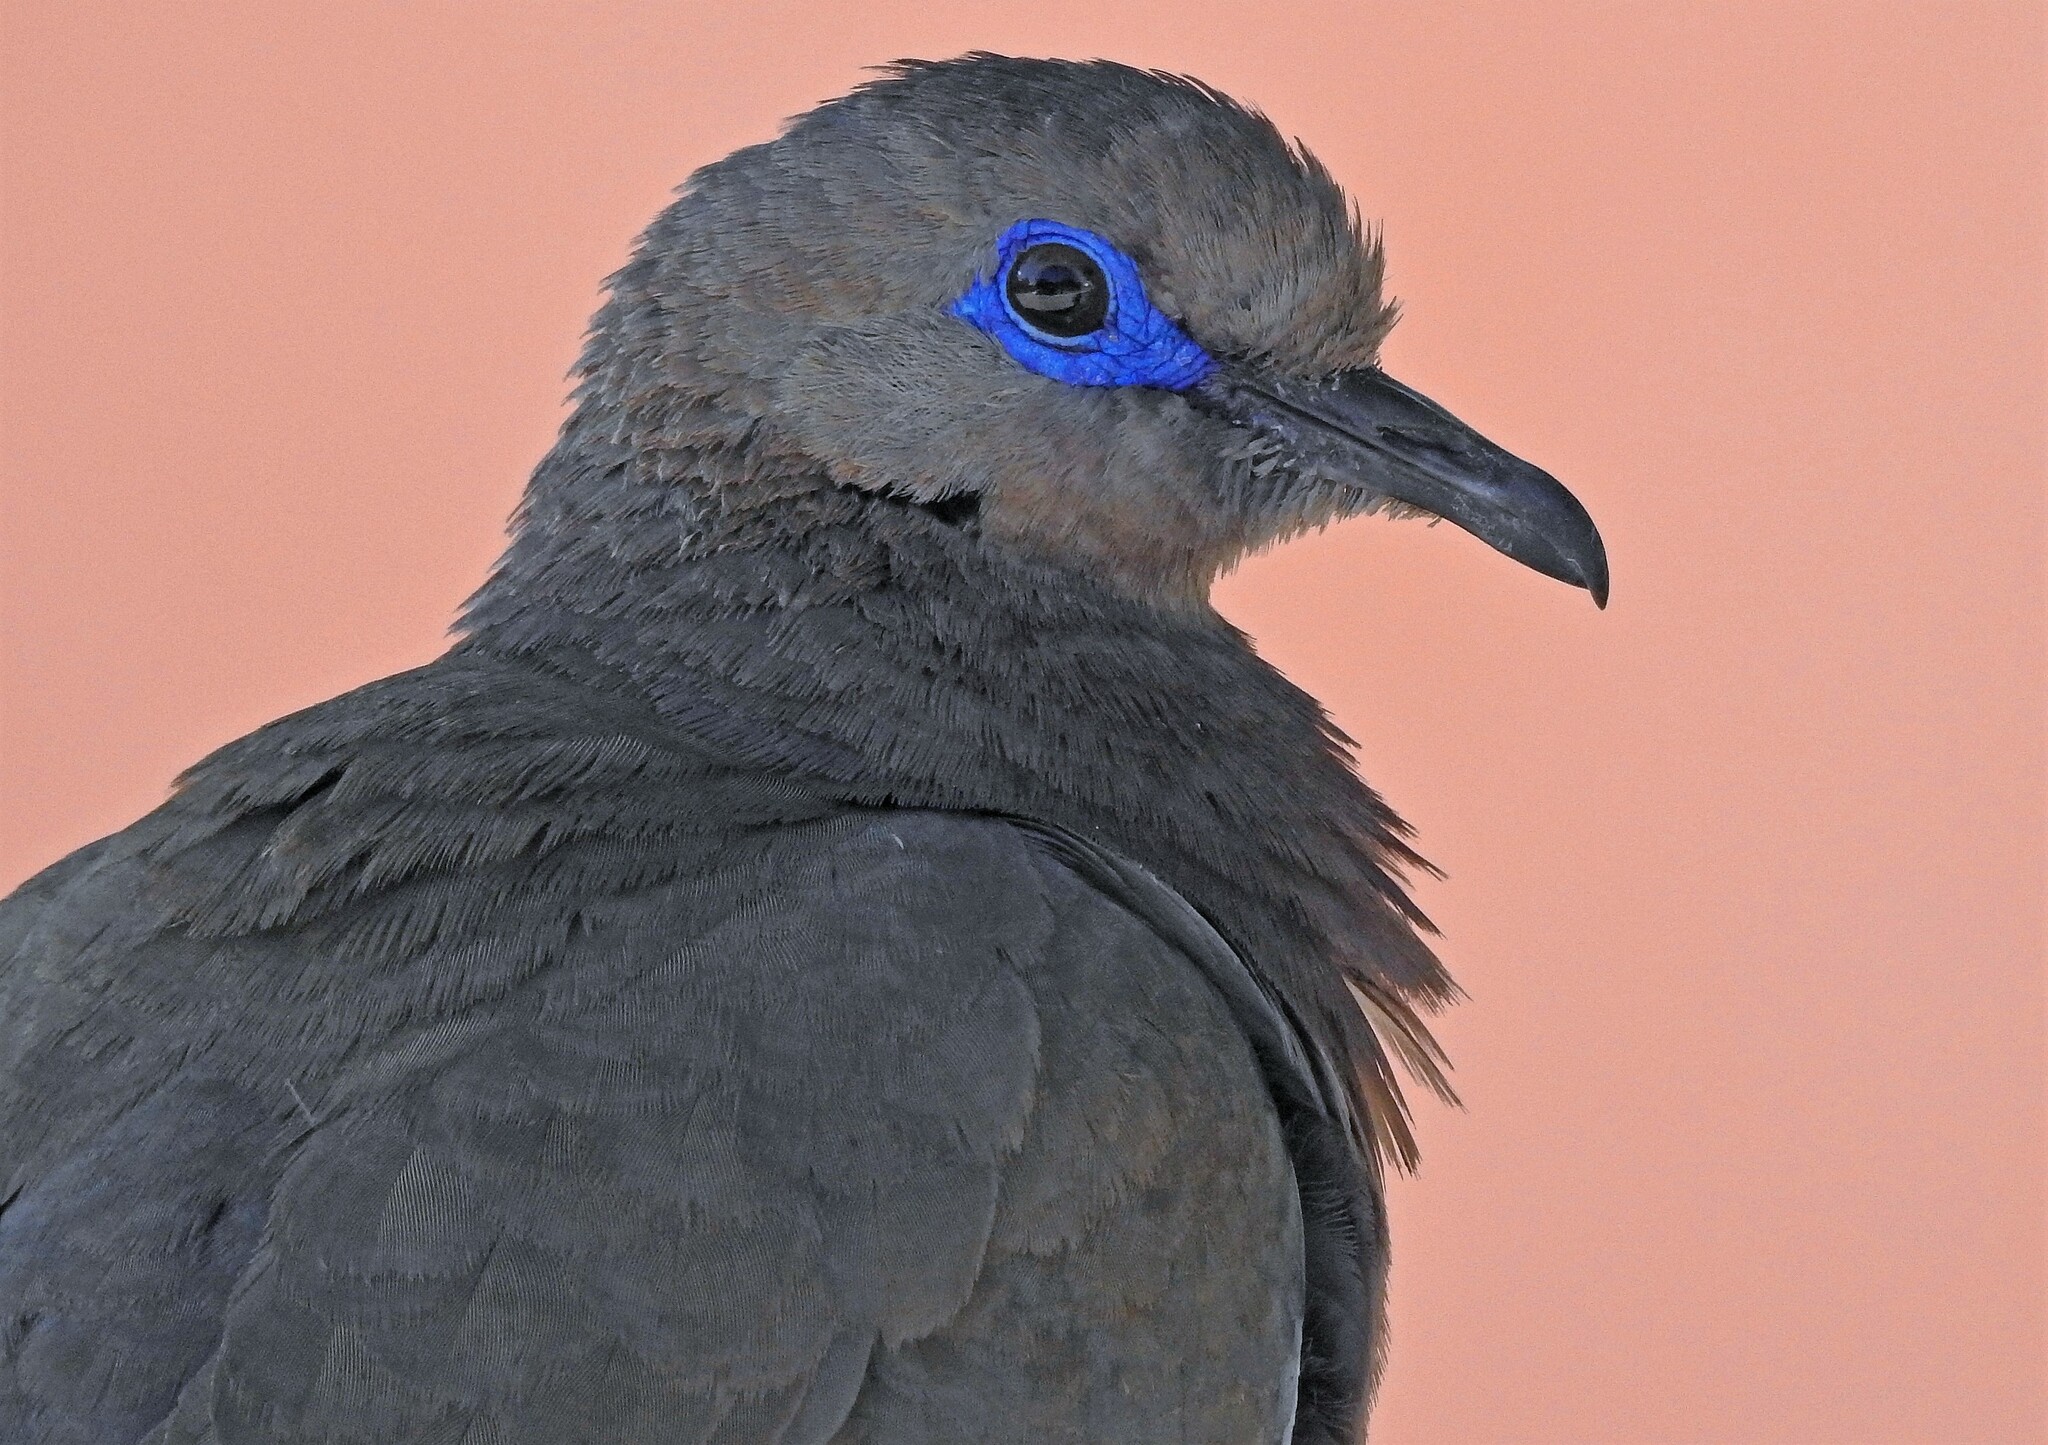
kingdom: Animalia
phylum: Chordata
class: Aves
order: Columbiformes
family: Columbidae
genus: Zenaida
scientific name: Zenaida meloda
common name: West peruvian dove
